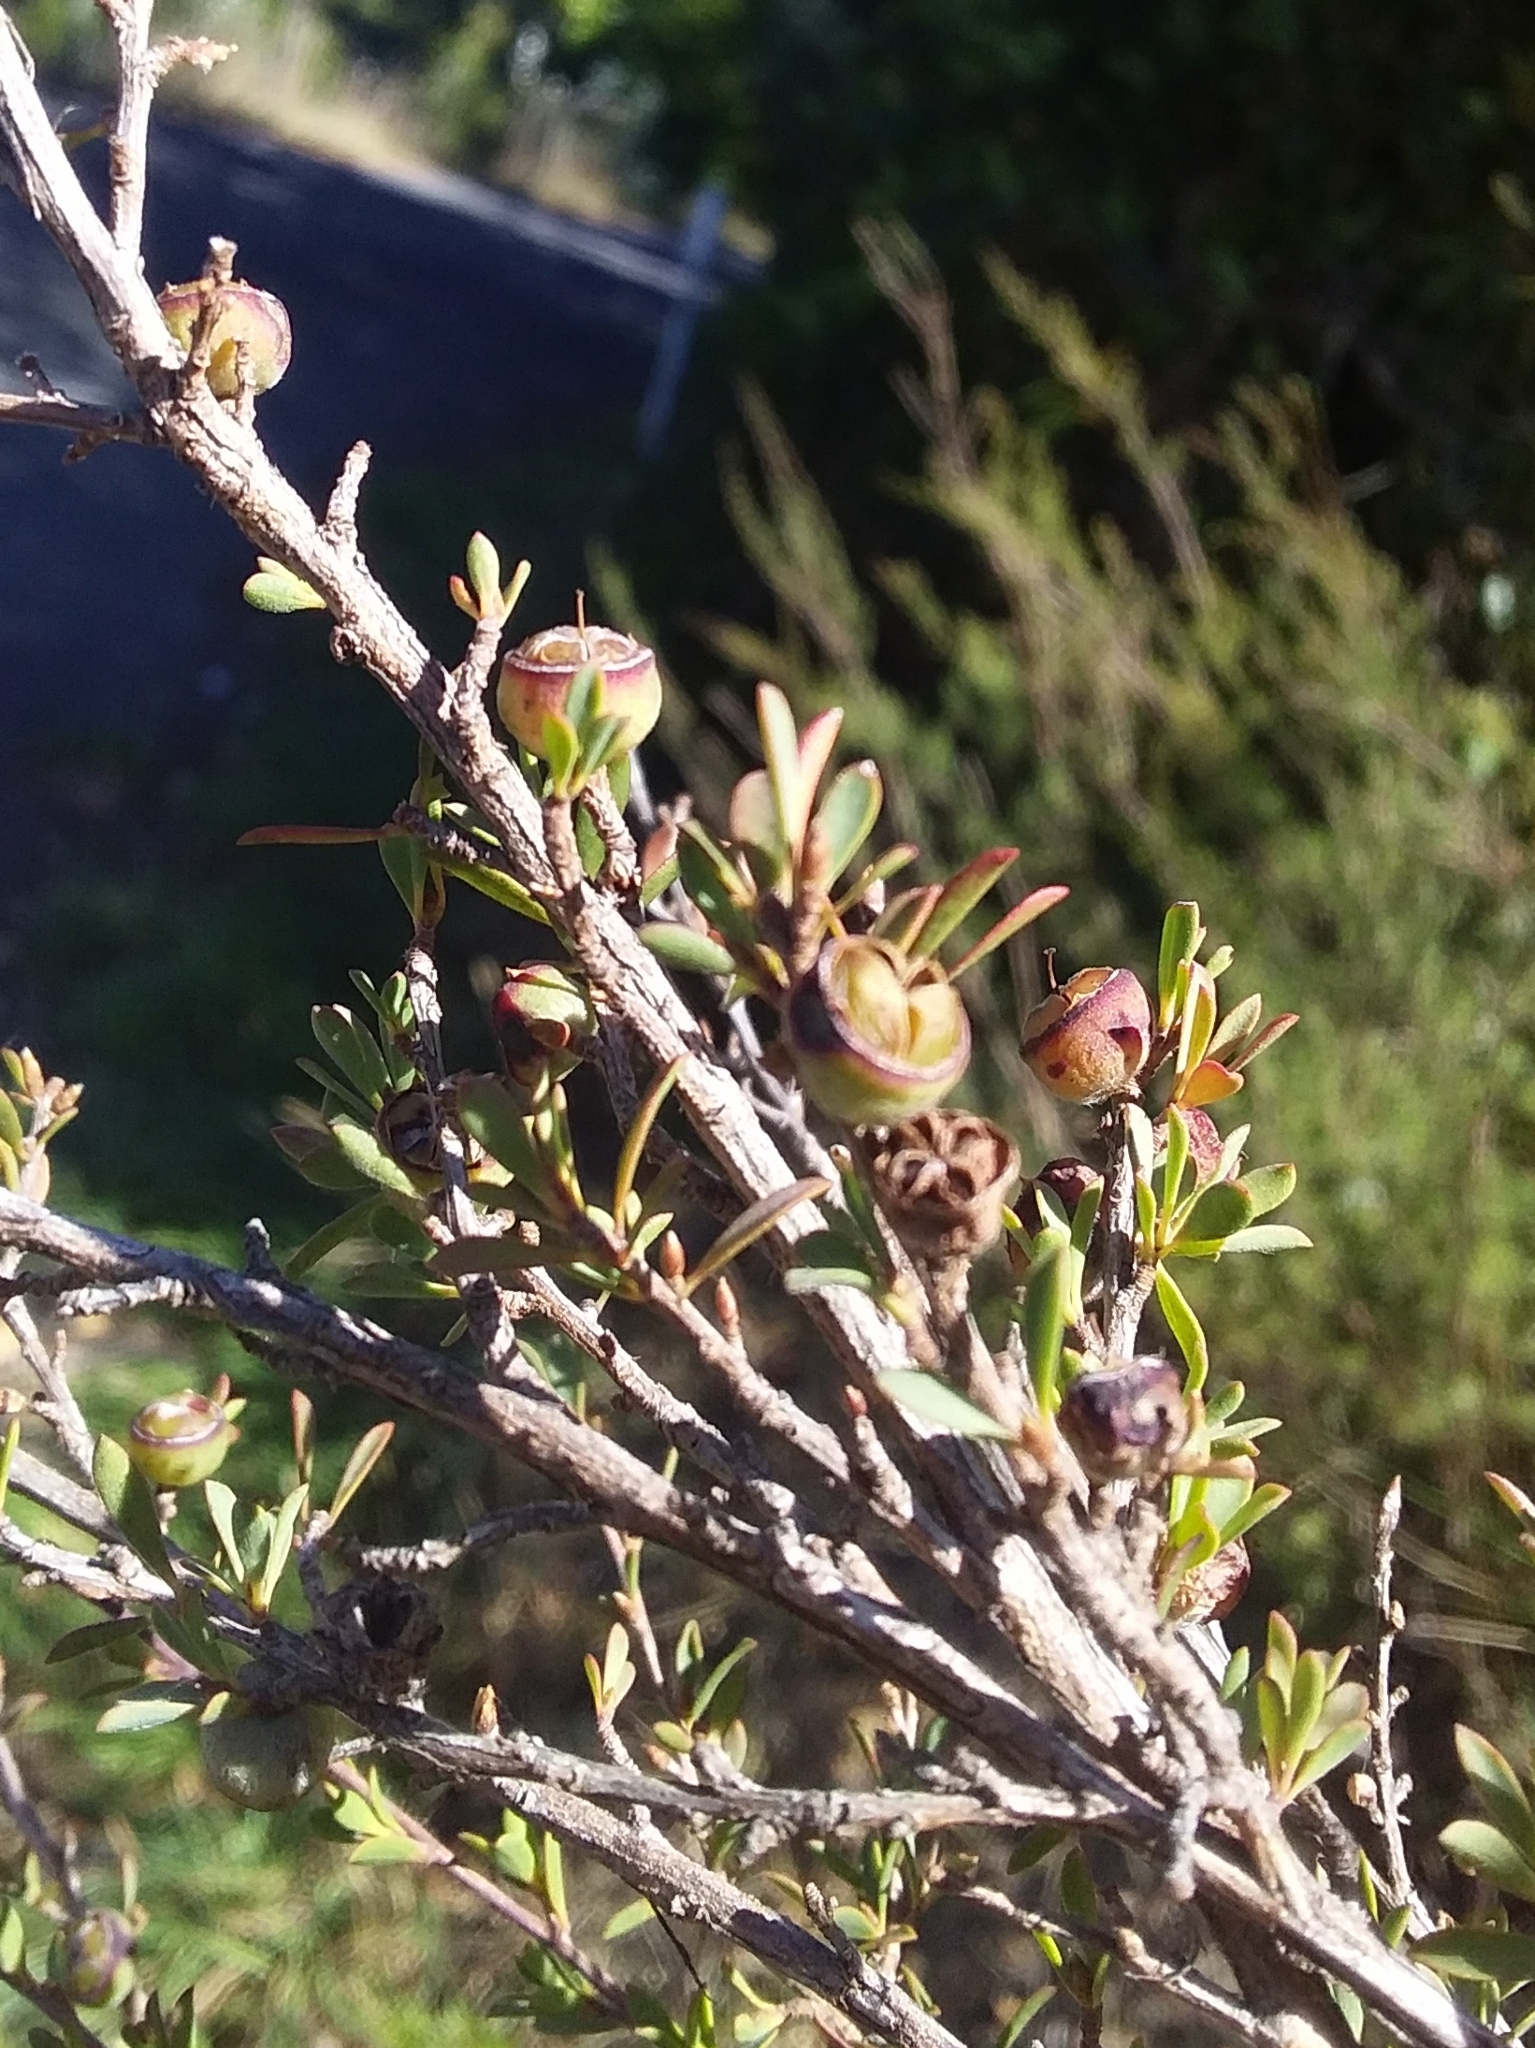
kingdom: Plantae
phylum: Tracheophyta
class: Magnoliopsida
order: Myrtales
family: Myrtaceae
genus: Leptospermum
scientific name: Leptospermum myrsinoides
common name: Heath teatree
